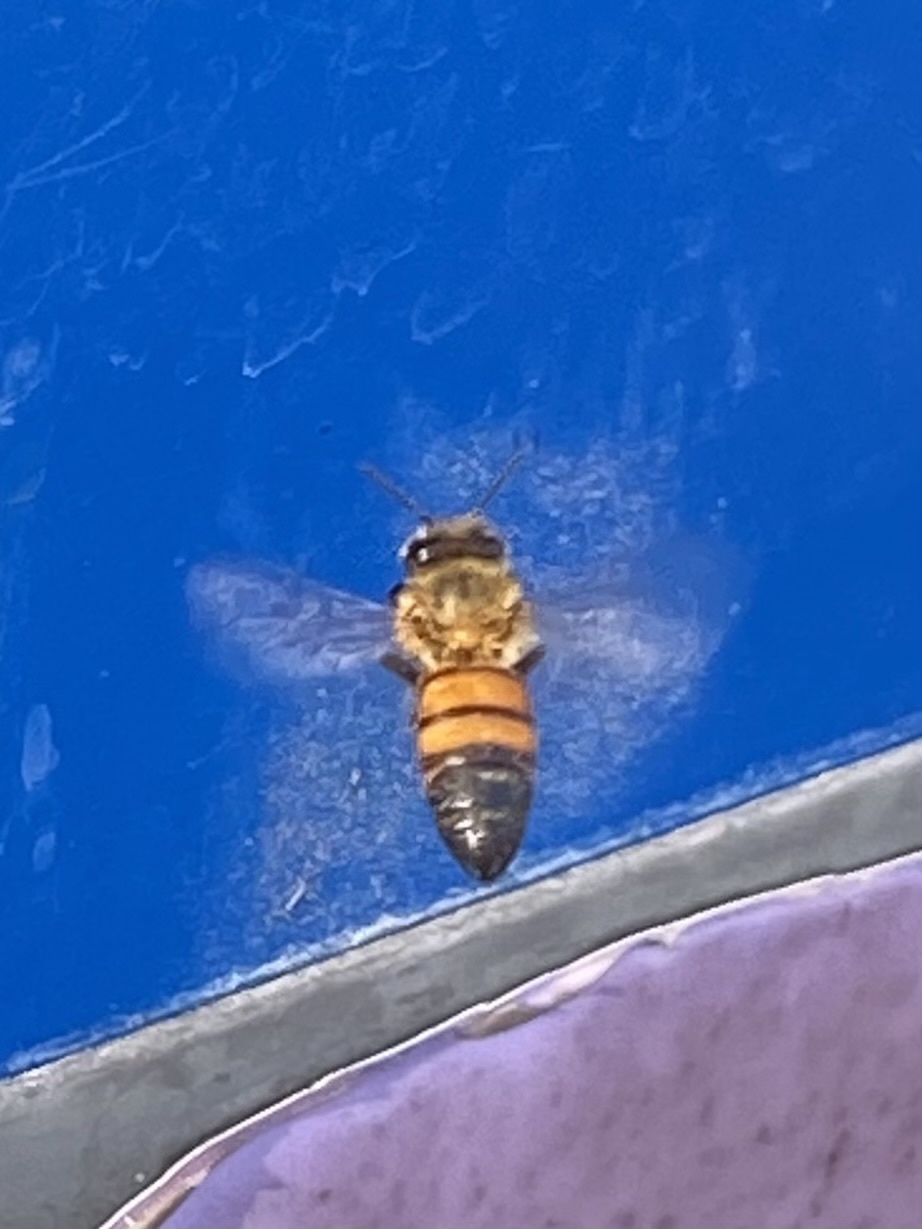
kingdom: Animalia
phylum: Arthropoda
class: Insecta
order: Hymenoptera
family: Apidae
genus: Apis
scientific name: Apis mellifera
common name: Honey bee
